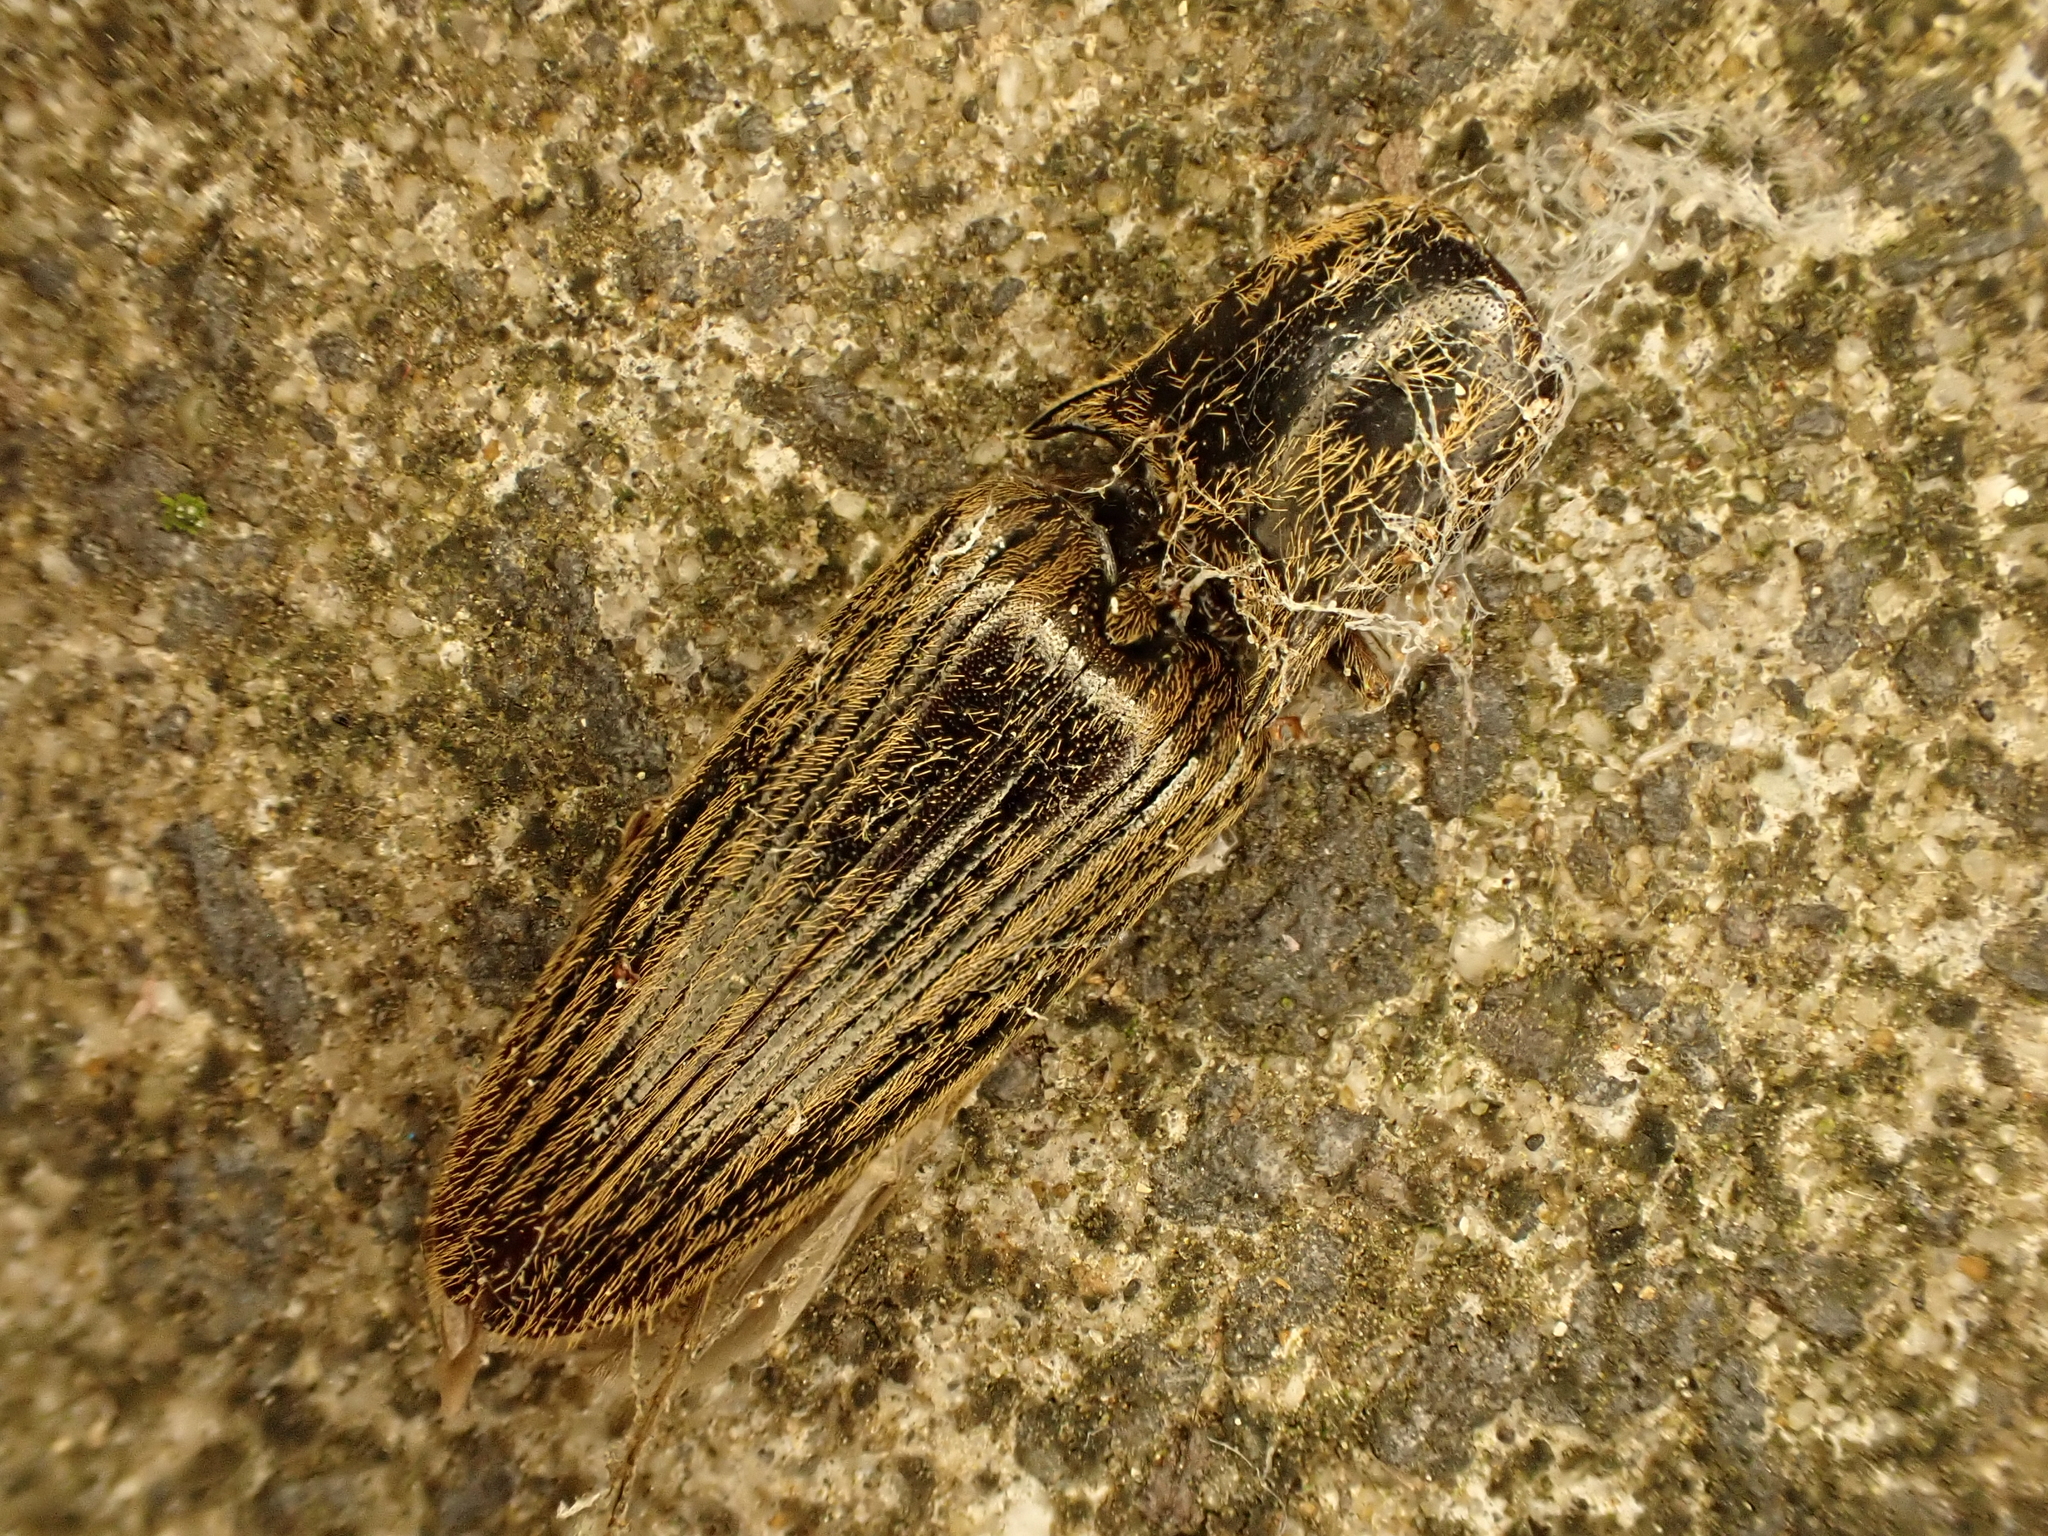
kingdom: Animalia
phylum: Arthropoda
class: Insecta
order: Coleoptera
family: Elateridae
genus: Thoramus
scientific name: Thoramus
